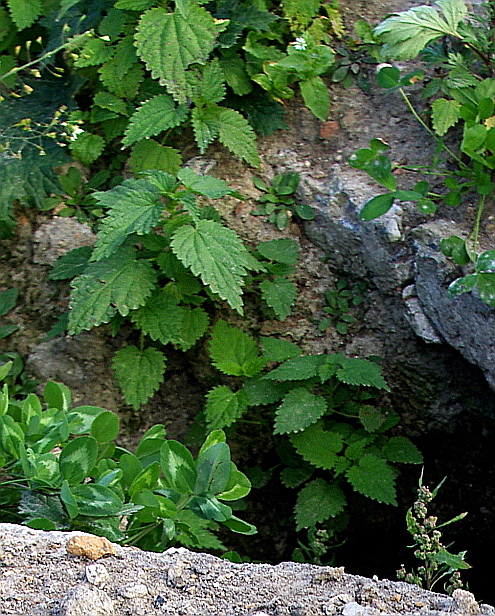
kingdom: Plantae
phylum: Tracheophyta
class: Magnoliopsida
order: Rosales
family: Urticaceae
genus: Urtica
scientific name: Urtica dioica
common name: Common nettle
